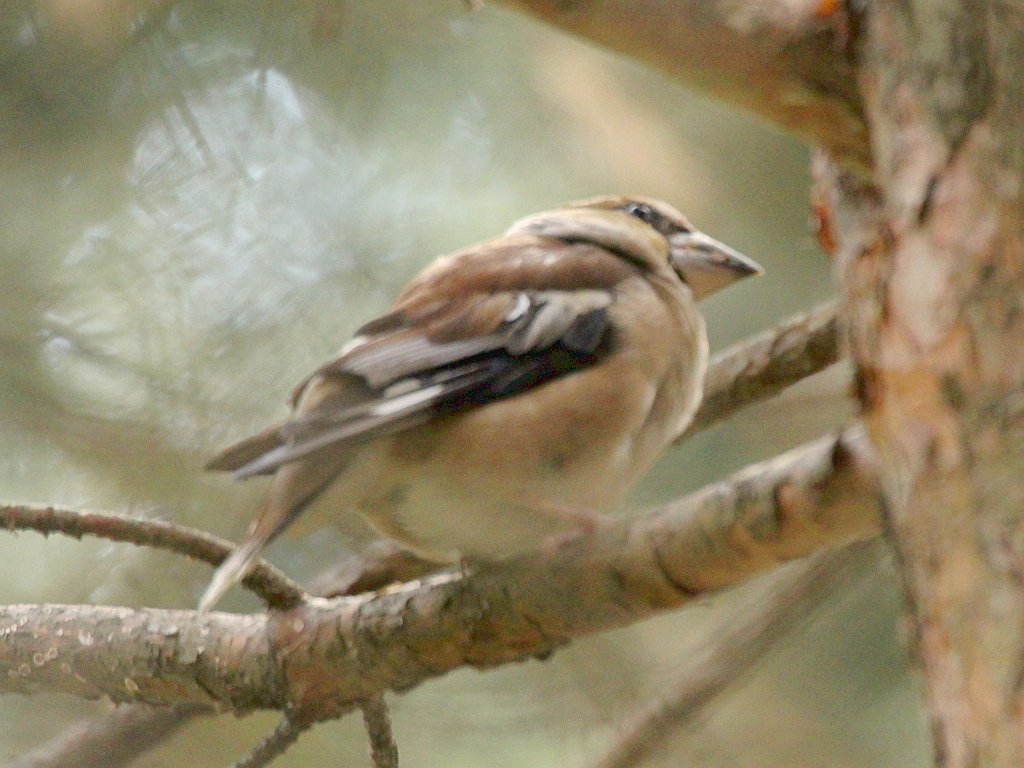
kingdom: Animalia
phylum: Chordata
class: Aves
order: Passeriformes
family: Fringillidae
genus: Coccothraustes
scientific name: Coccothraustes coccothraustes
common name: Hawfinch
